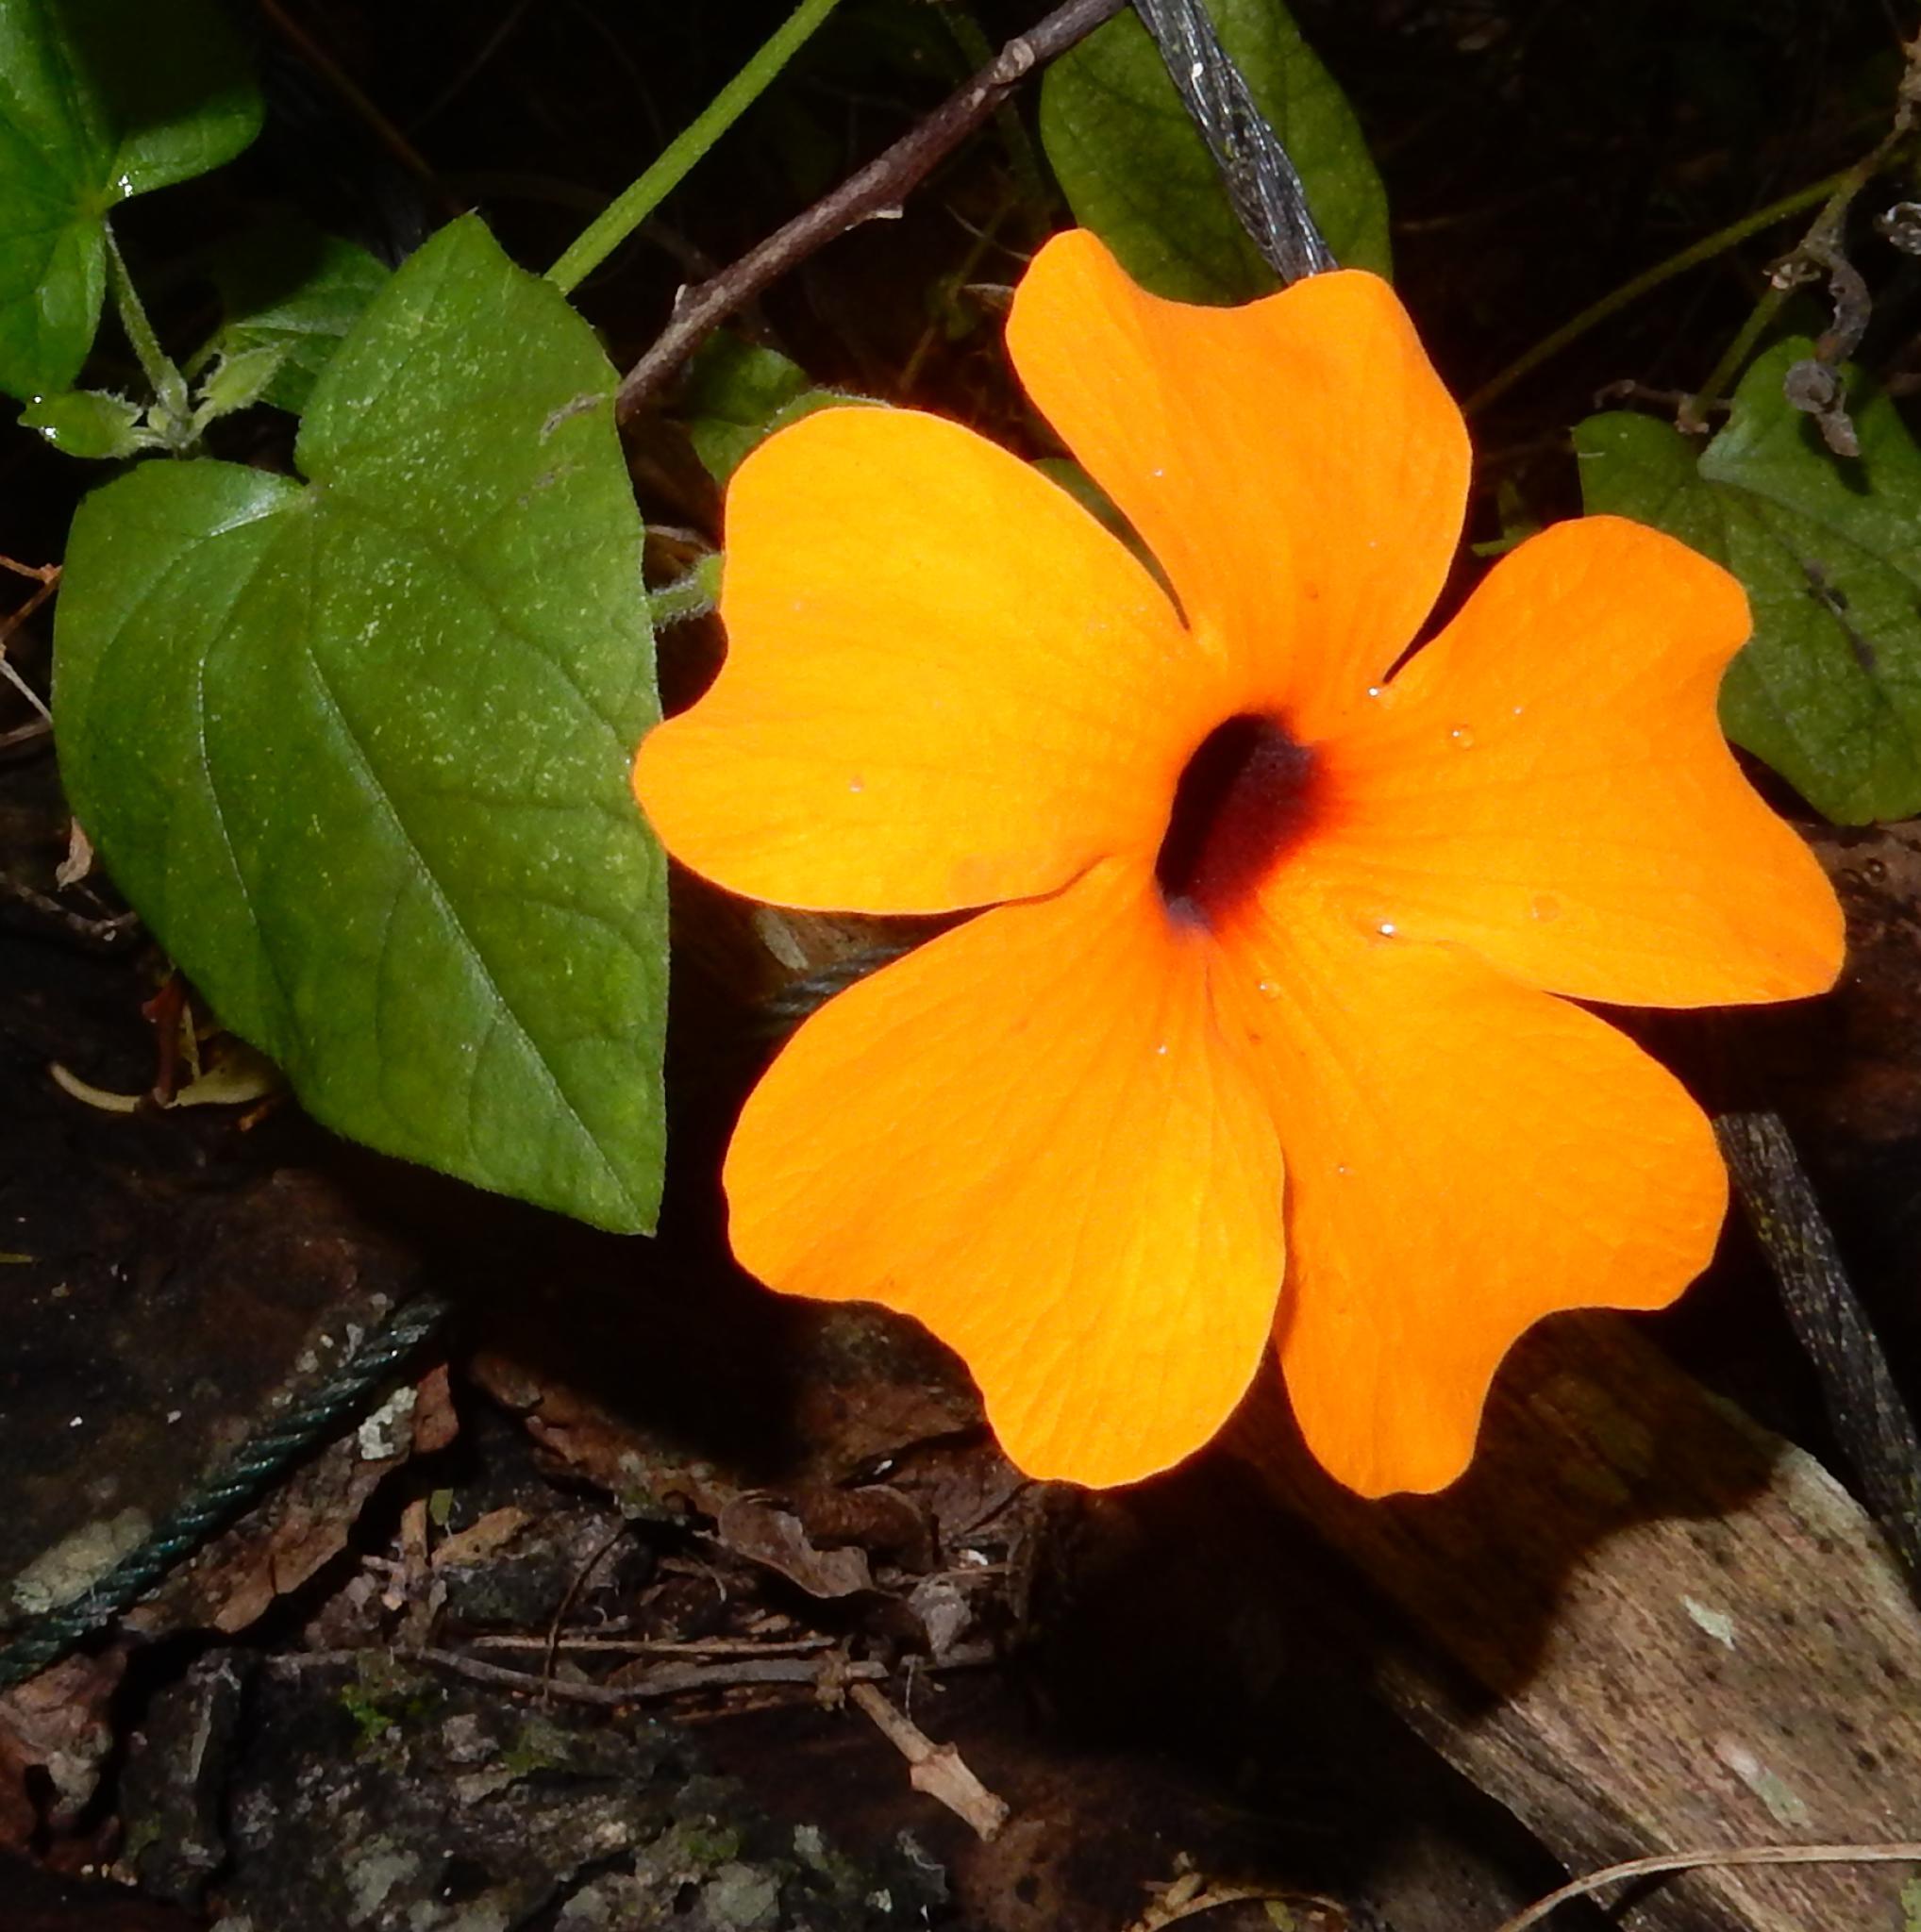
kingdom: Plantae
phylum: Tracheophyta
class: Magnoliopsida
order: Lamiales
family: Acanthaceae
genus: Thunbergia
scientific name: Thunbergia alata
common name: Blackeyed susan vine
